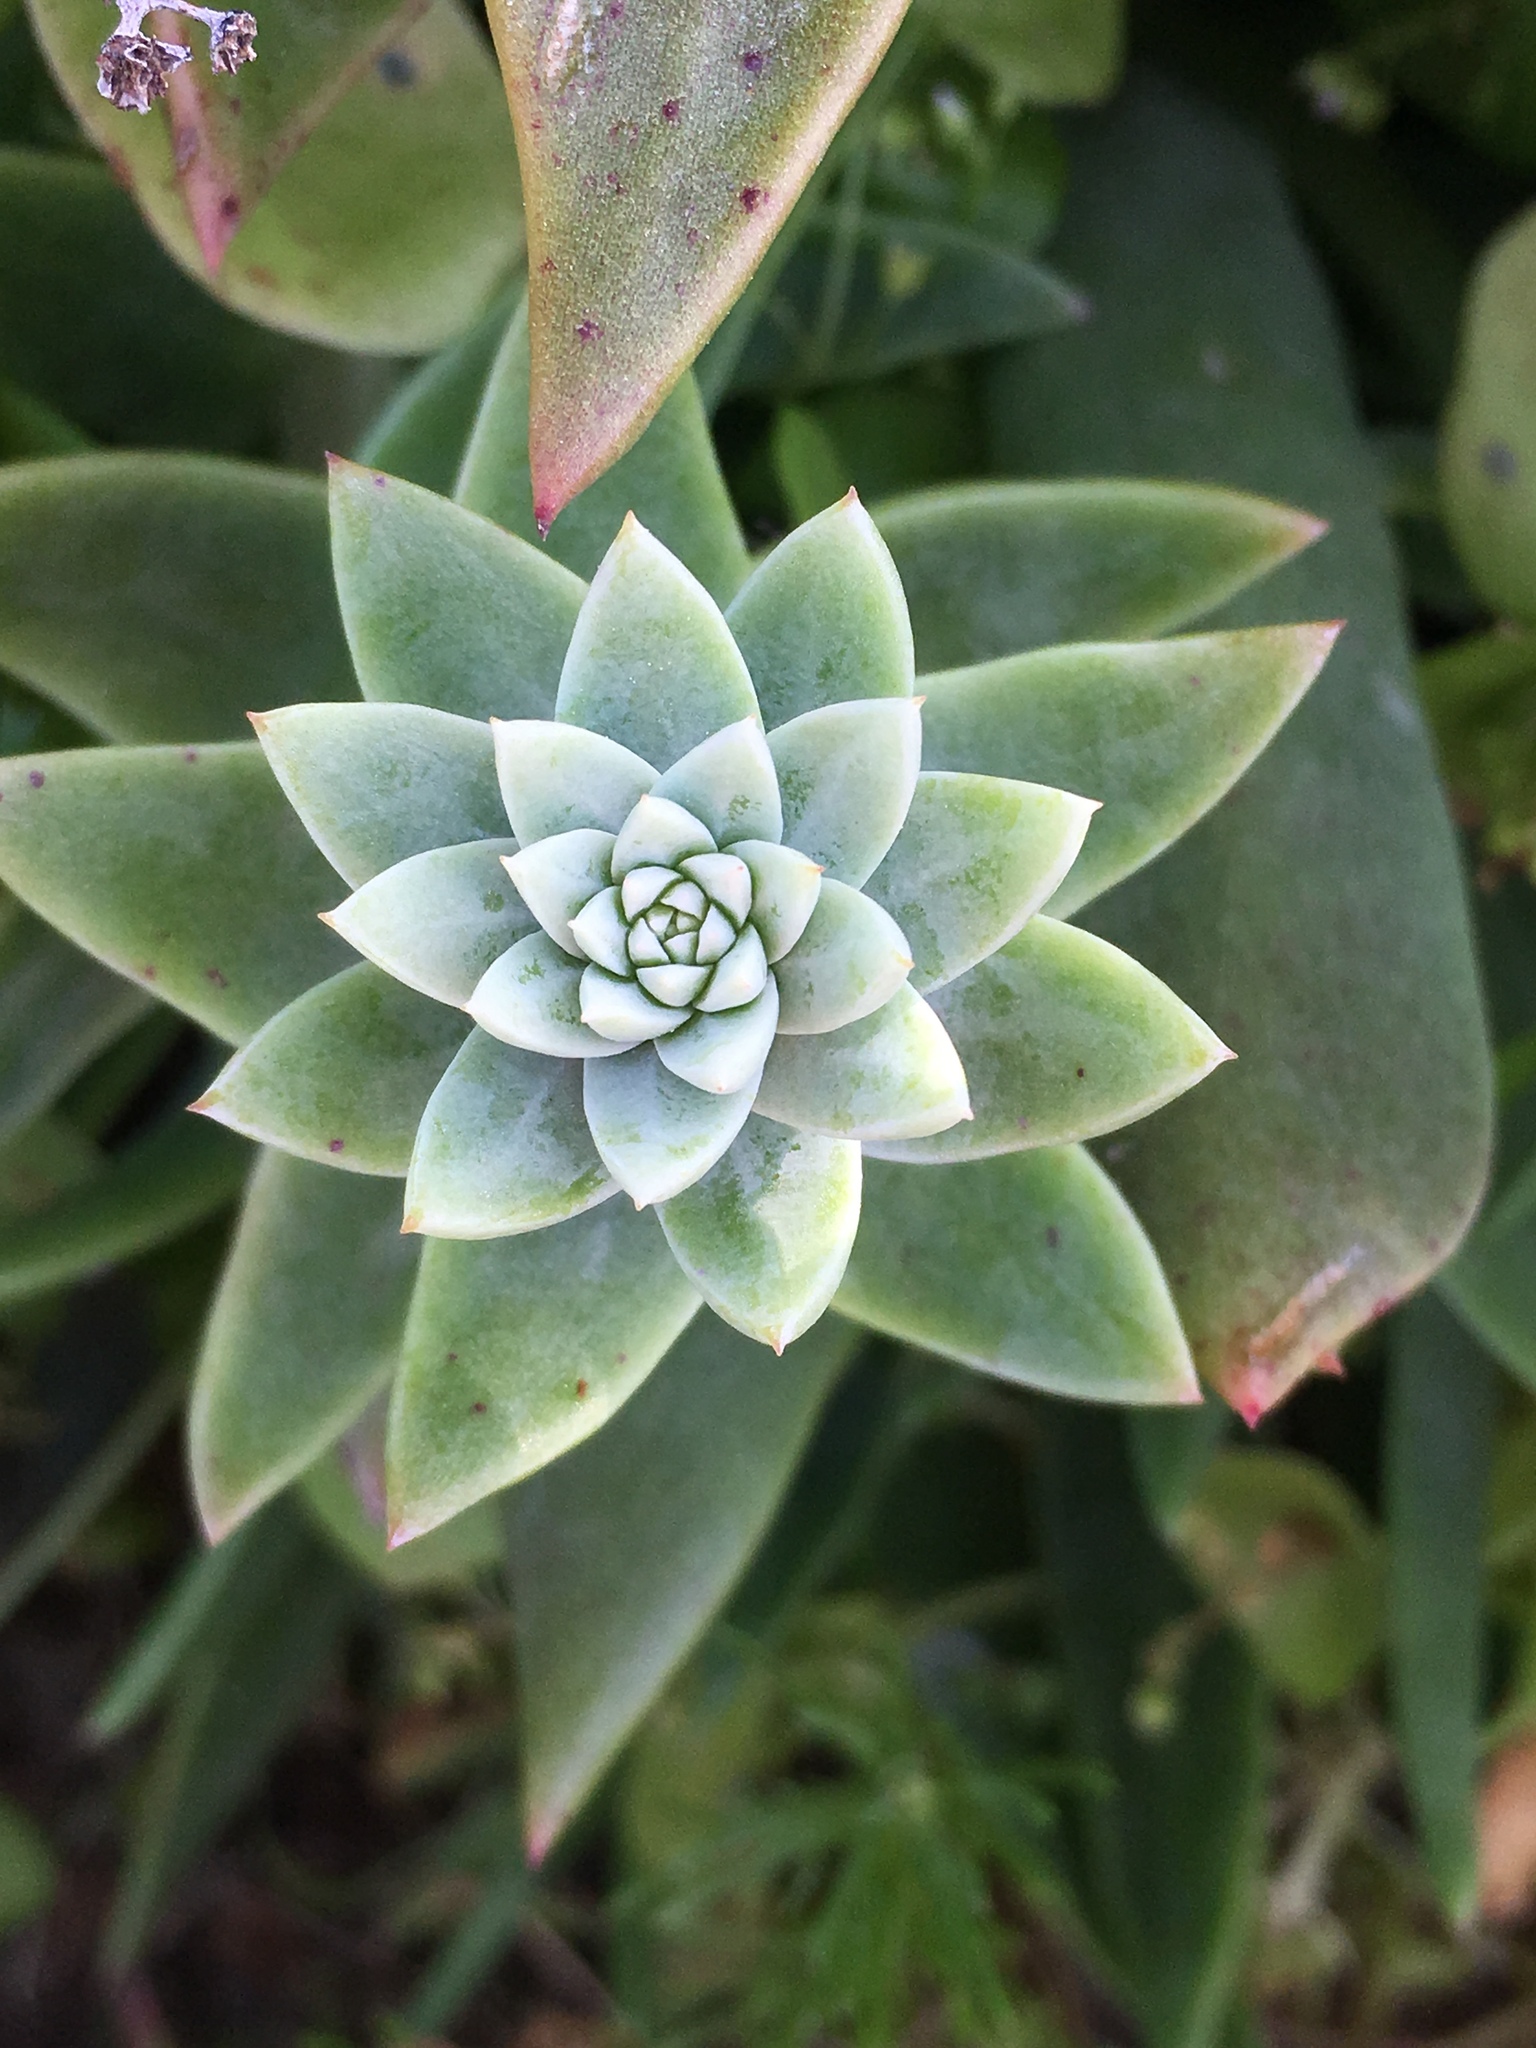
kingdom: Plantae
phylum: Tracheophyta
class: Magnoliopsida
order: Saxifragales
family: Crassulaceae
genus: Dudleya
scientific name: Dudleya traskiae
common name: Santa barbara island dudleya
